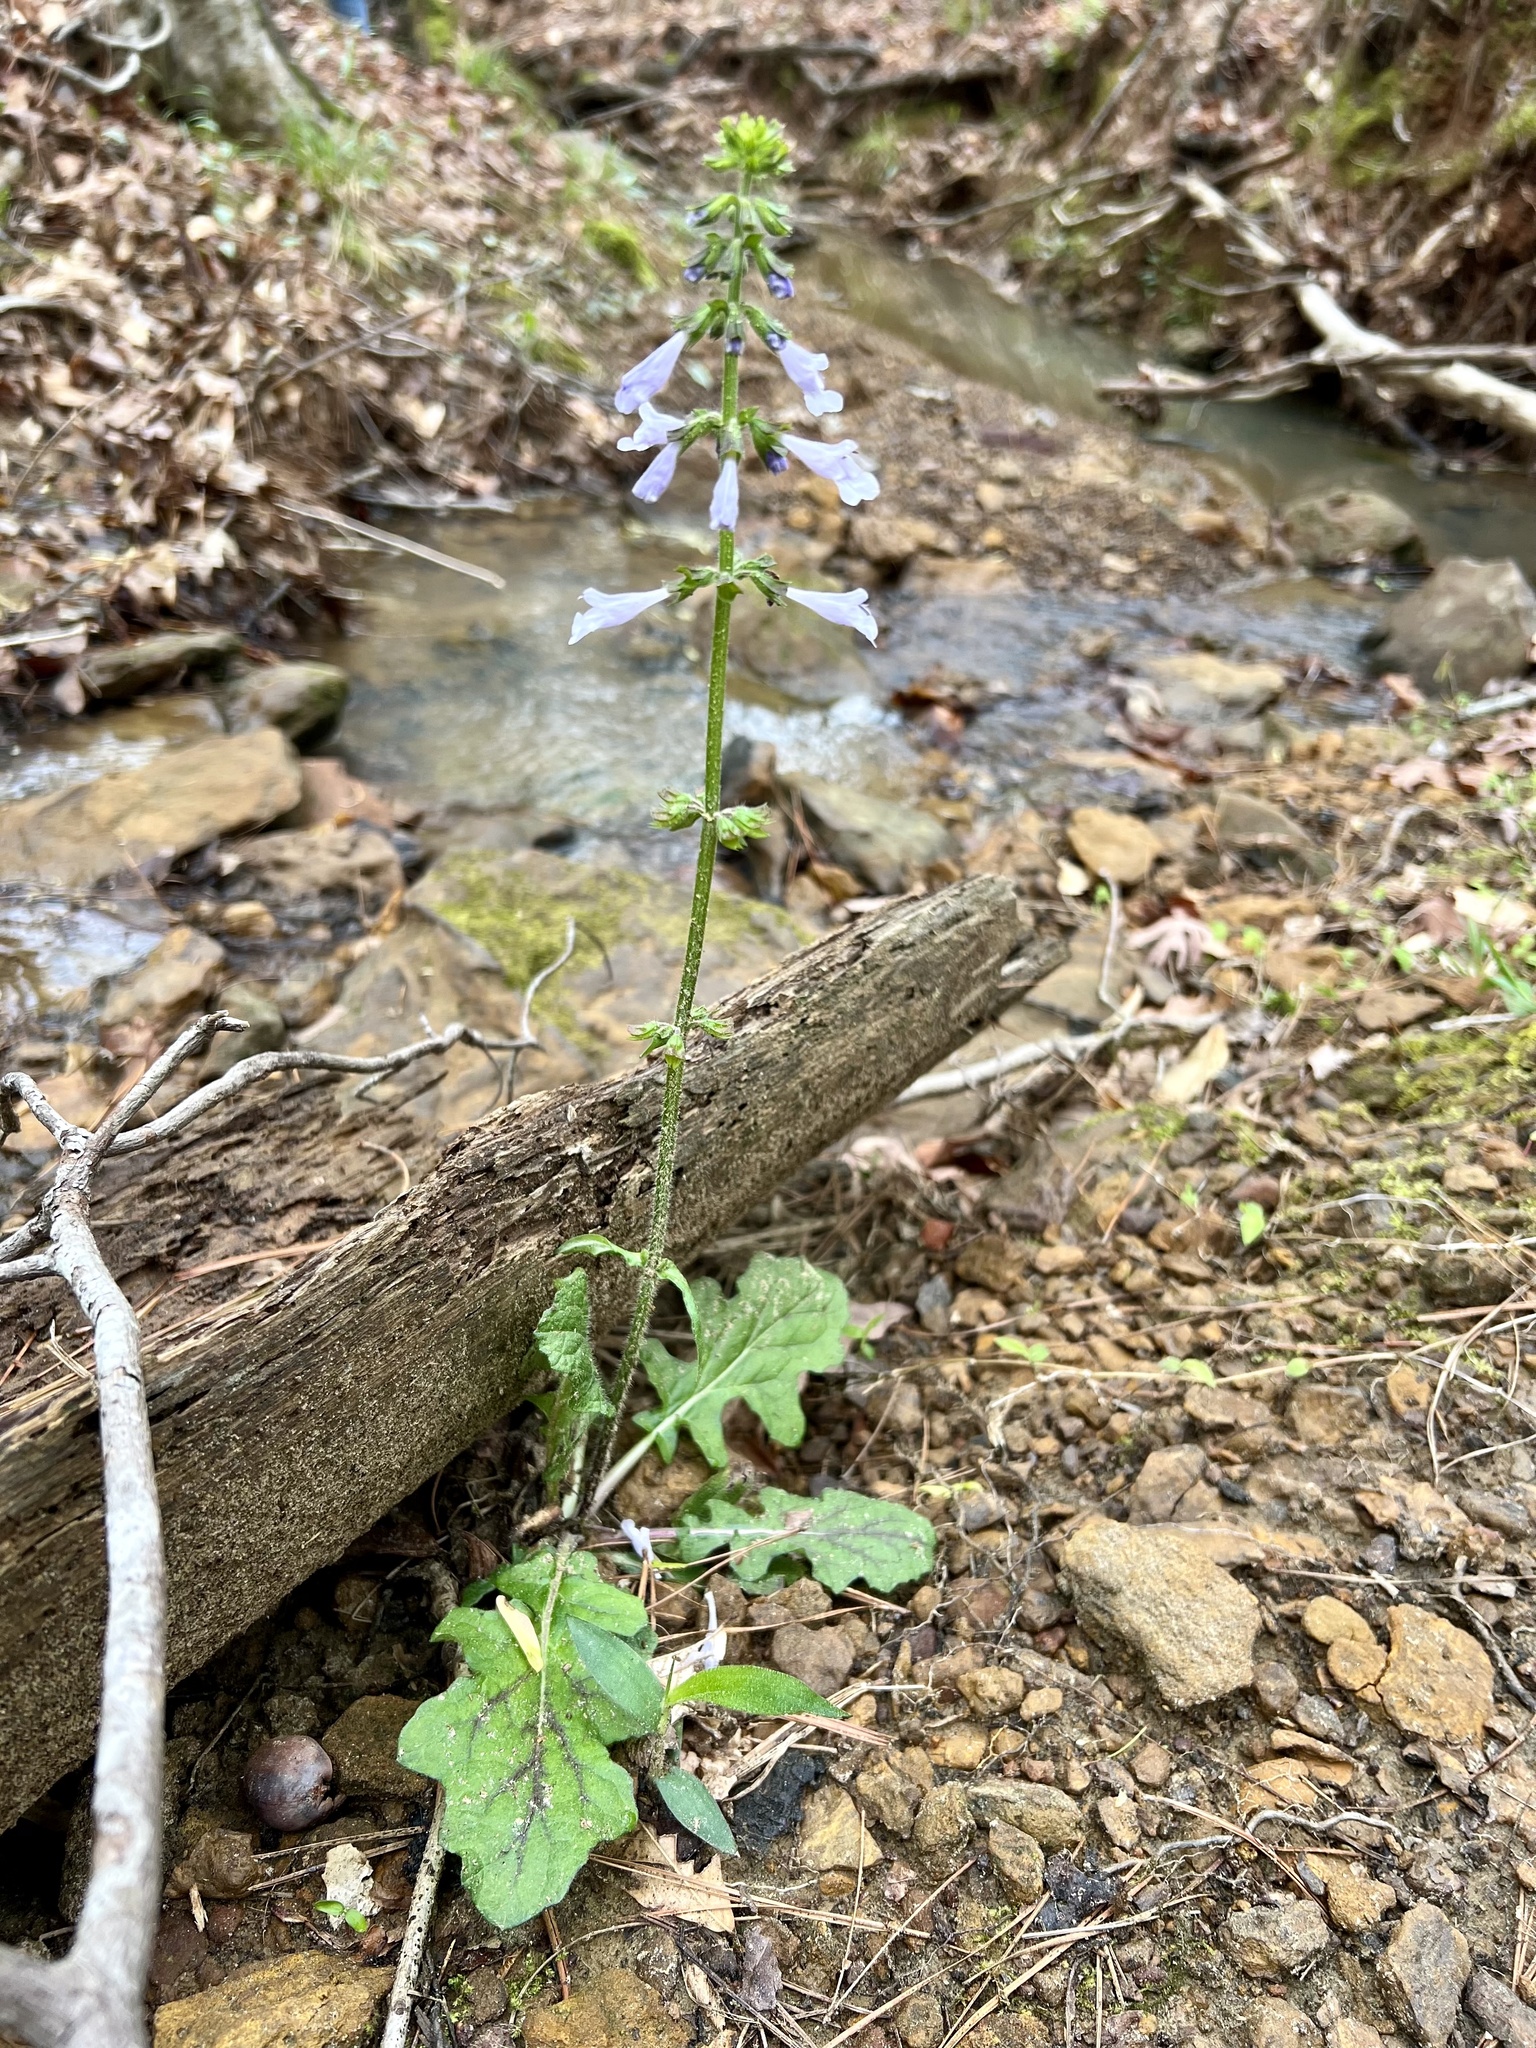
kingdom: Plantae
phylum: Tracheophyta
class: Magnoliopsida
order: Lamiales
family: Lamiaceae
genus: Salvia
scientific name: Salvia lyrata
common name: Cancerweed
